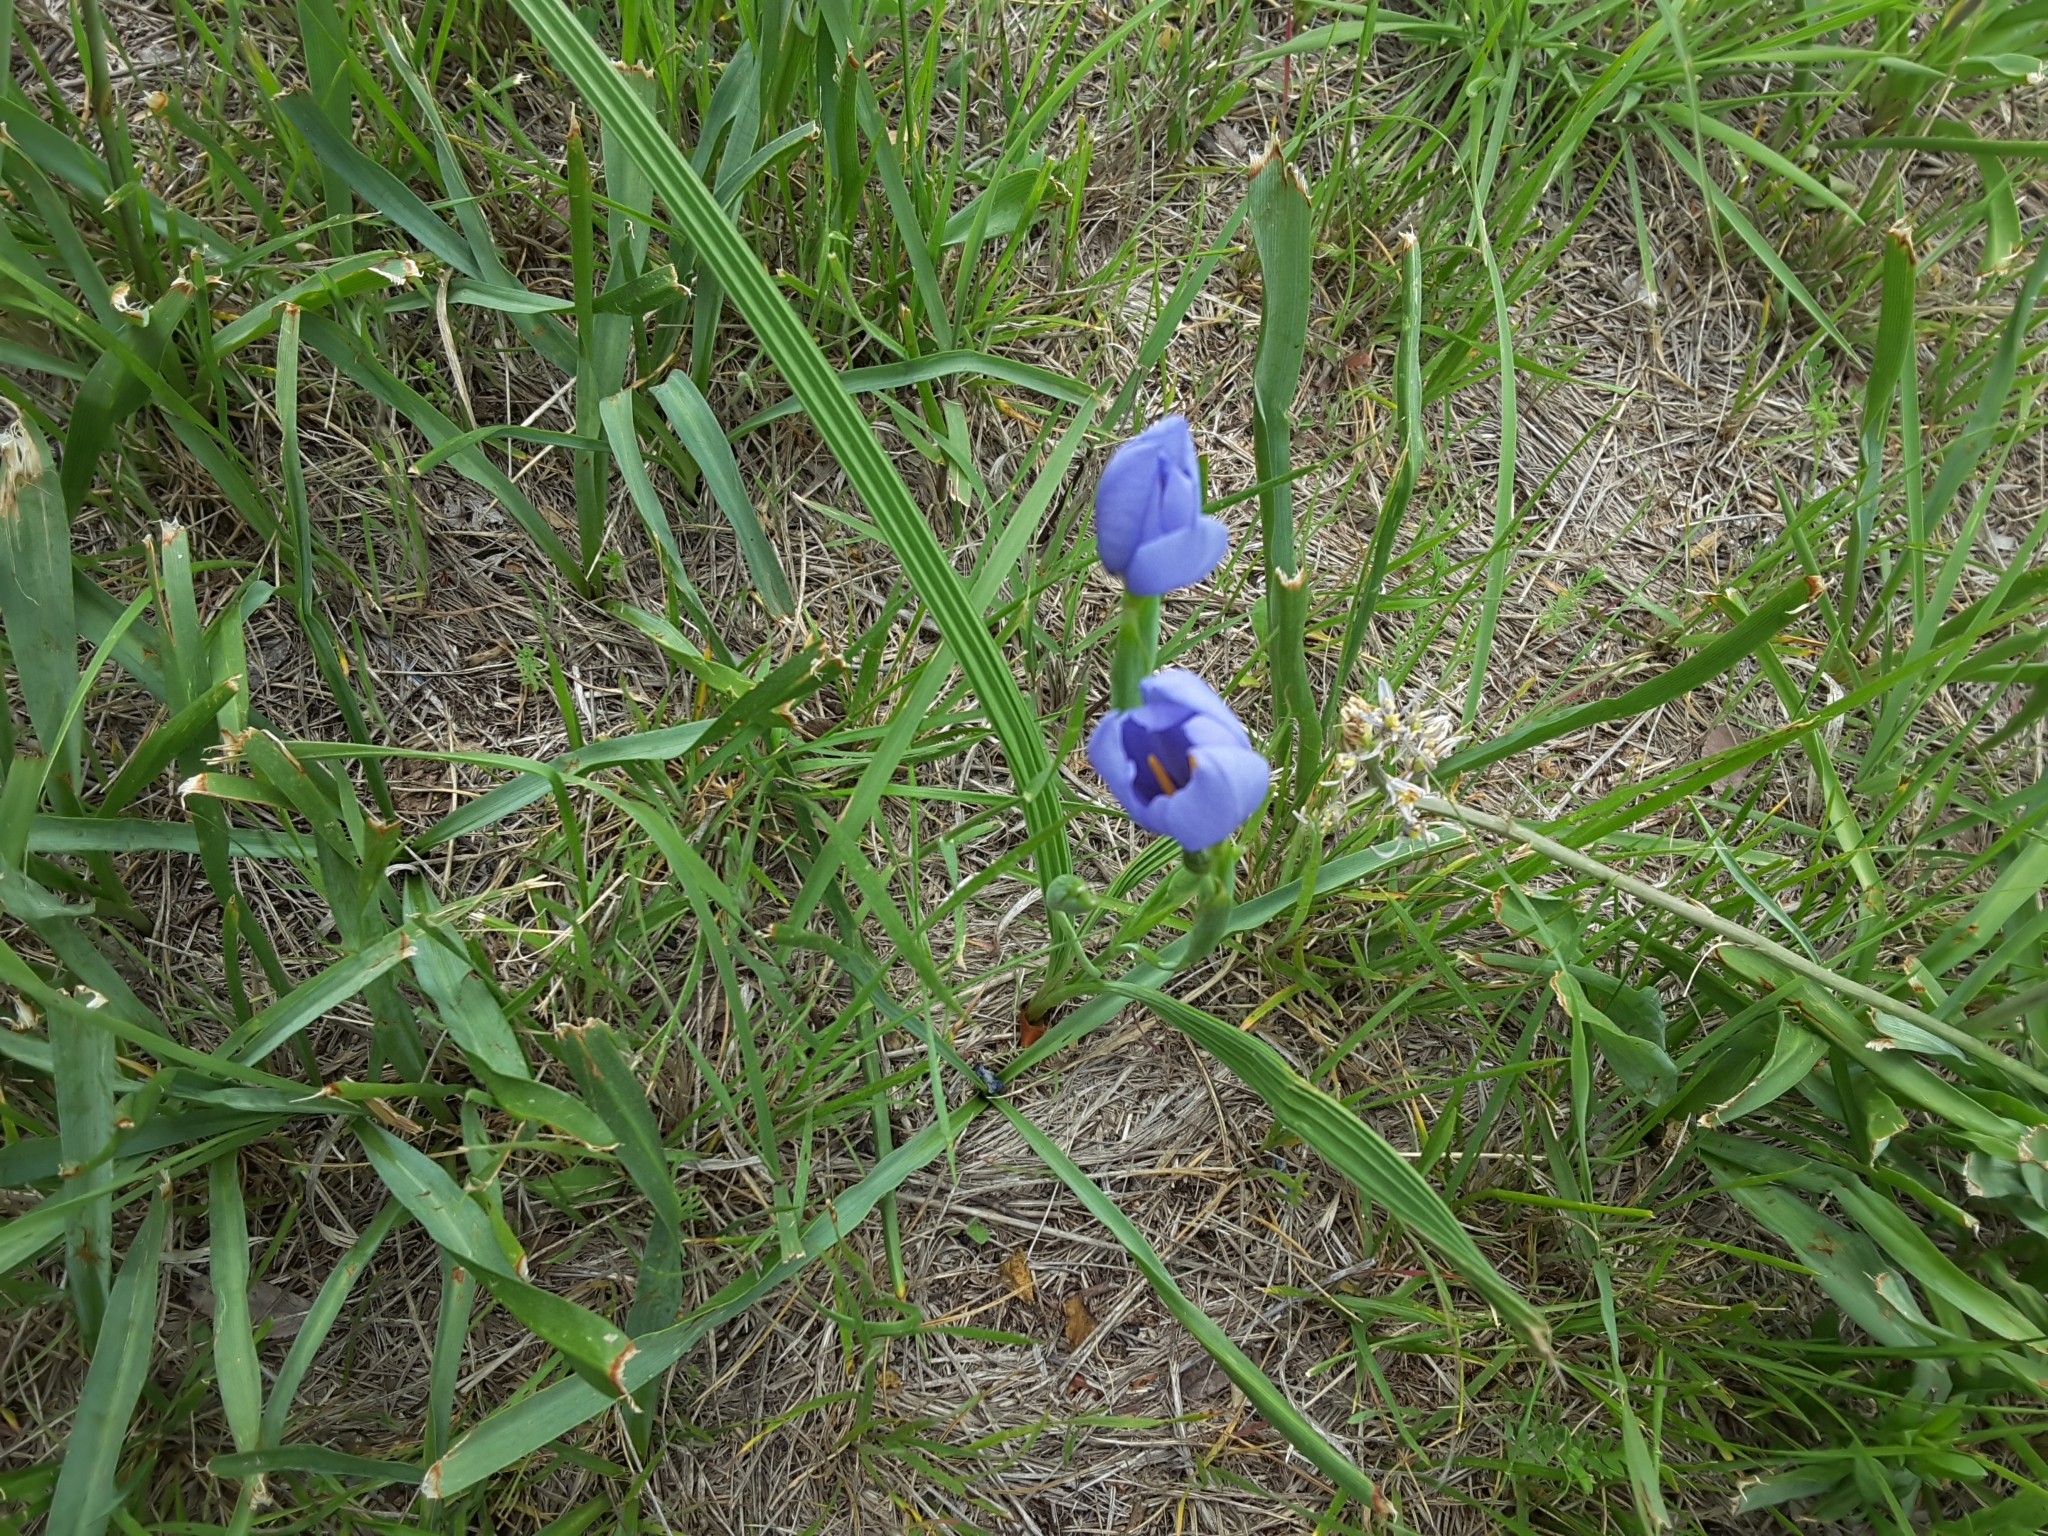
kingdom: Plantae
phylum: Tracheophyta
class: Liliopsida
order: Asparagales
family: Iridaceae
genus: Nemastylis
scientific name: Nemastylis geminiflora
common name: Prairie celestial
